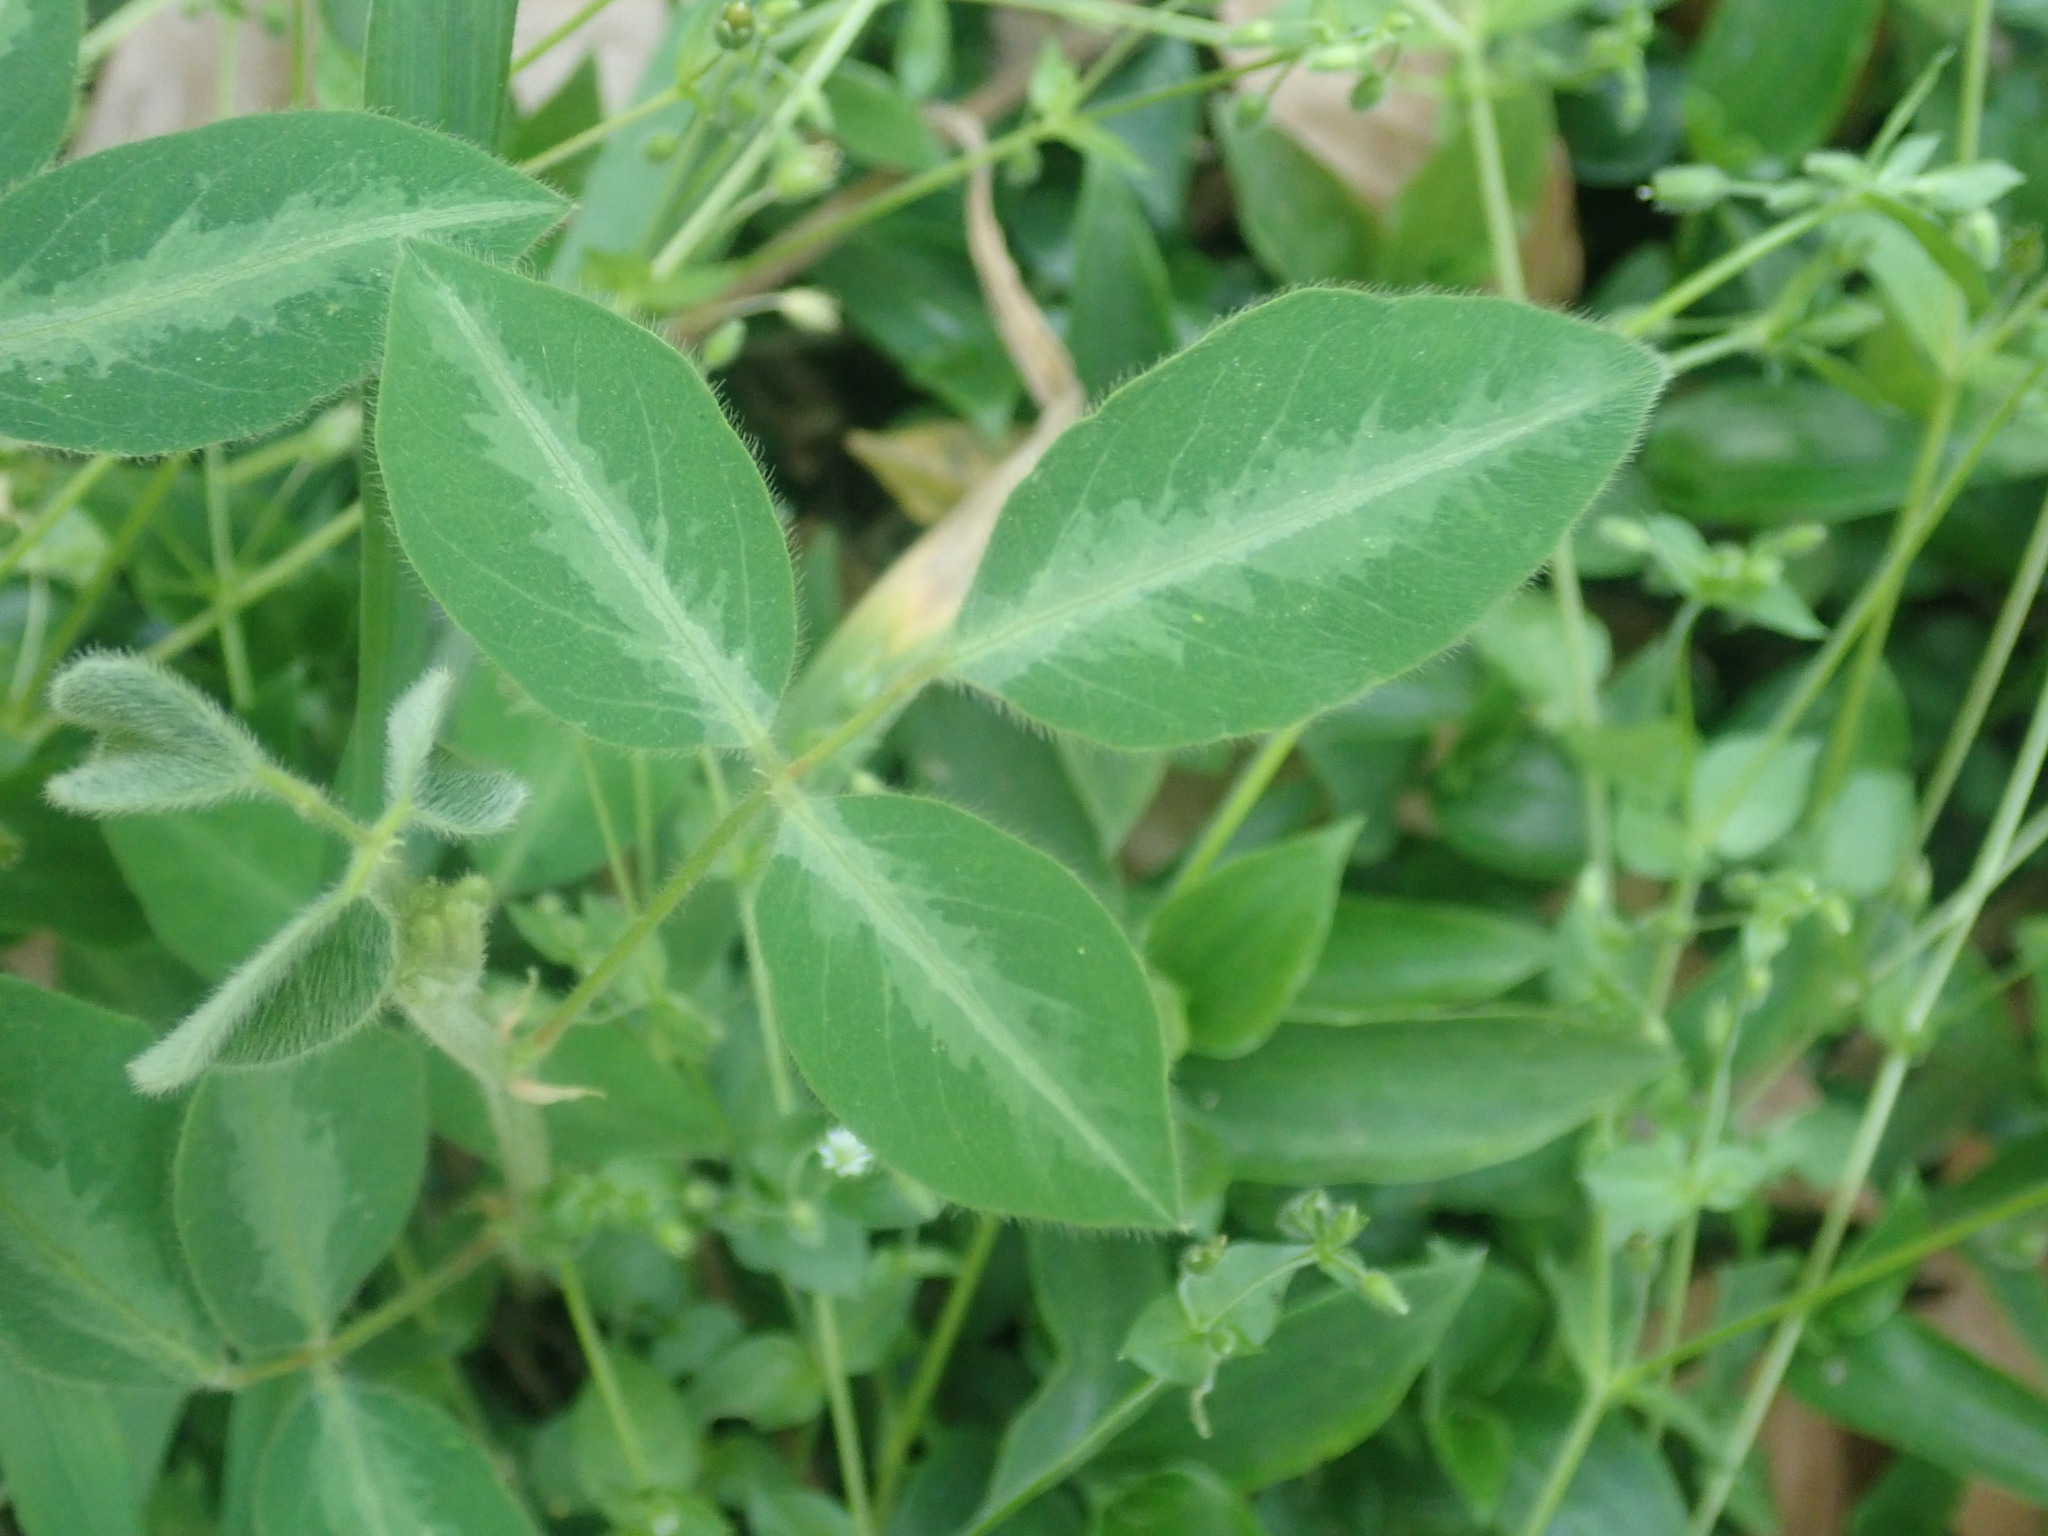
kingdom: Plantae
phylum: Tracheophyta
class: Magnoliopsida
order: Fabales
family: Fabaceae
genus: Desmodium
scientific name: Desmodium uncinatum
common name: Silverleaf desmodium
